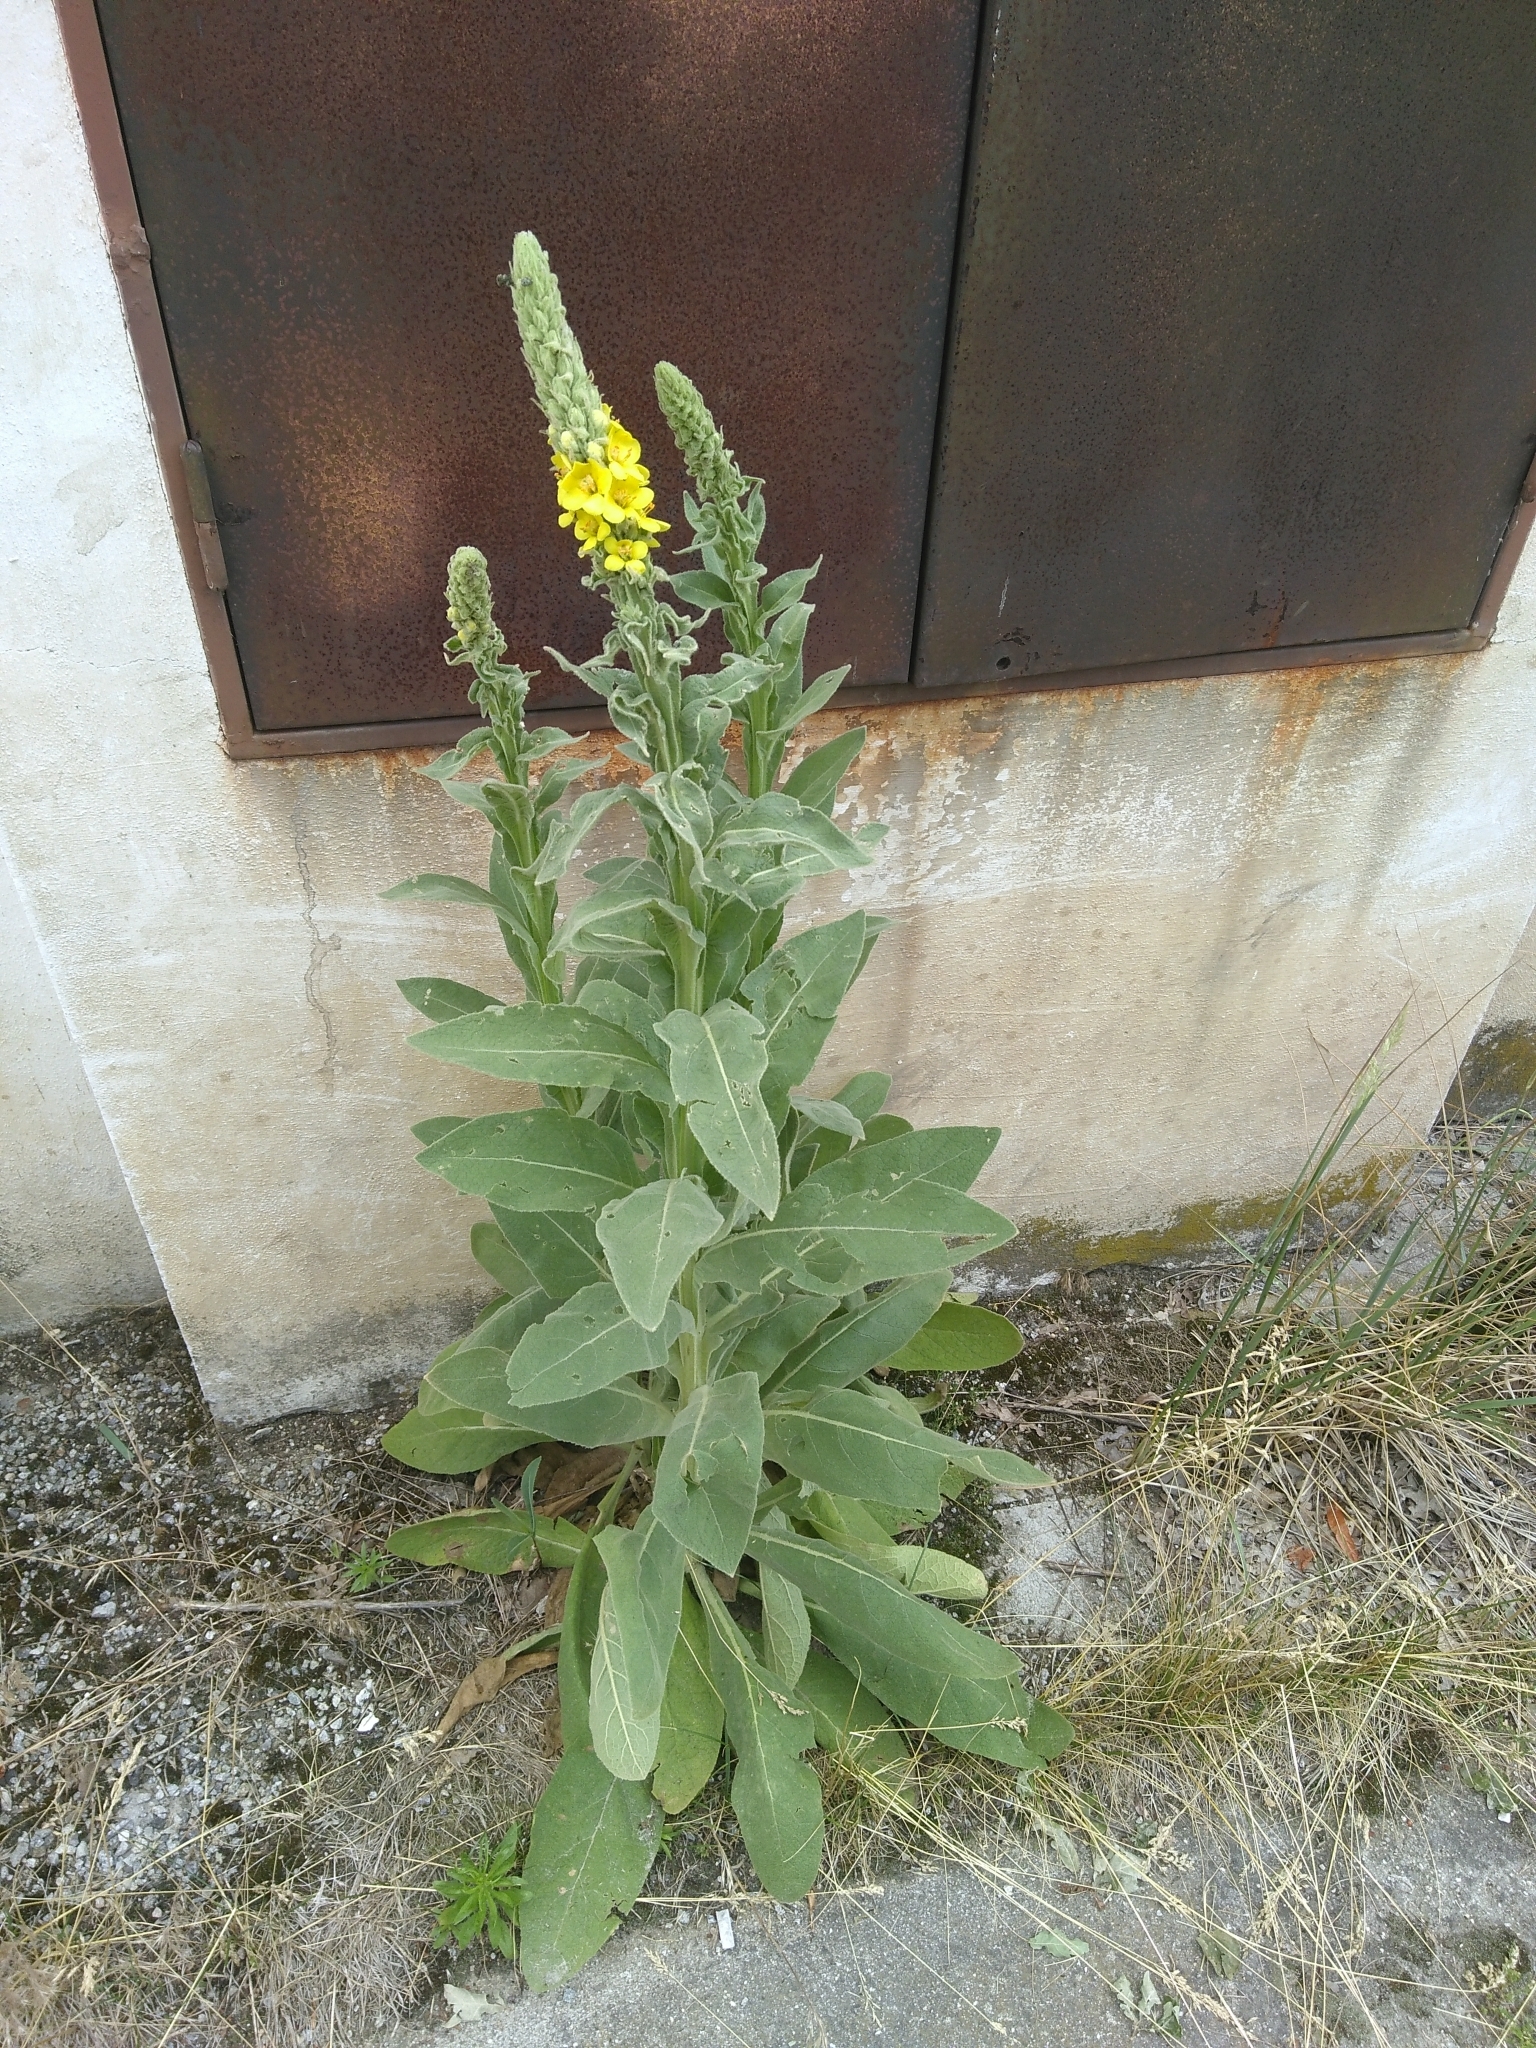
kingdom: Plantae
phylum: Tracheophyta
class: Magnoliopsida
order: Lamiales
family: Scrophulariaceae
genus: Verbascum
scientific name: Verbascum thapsus
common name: Common mullein
